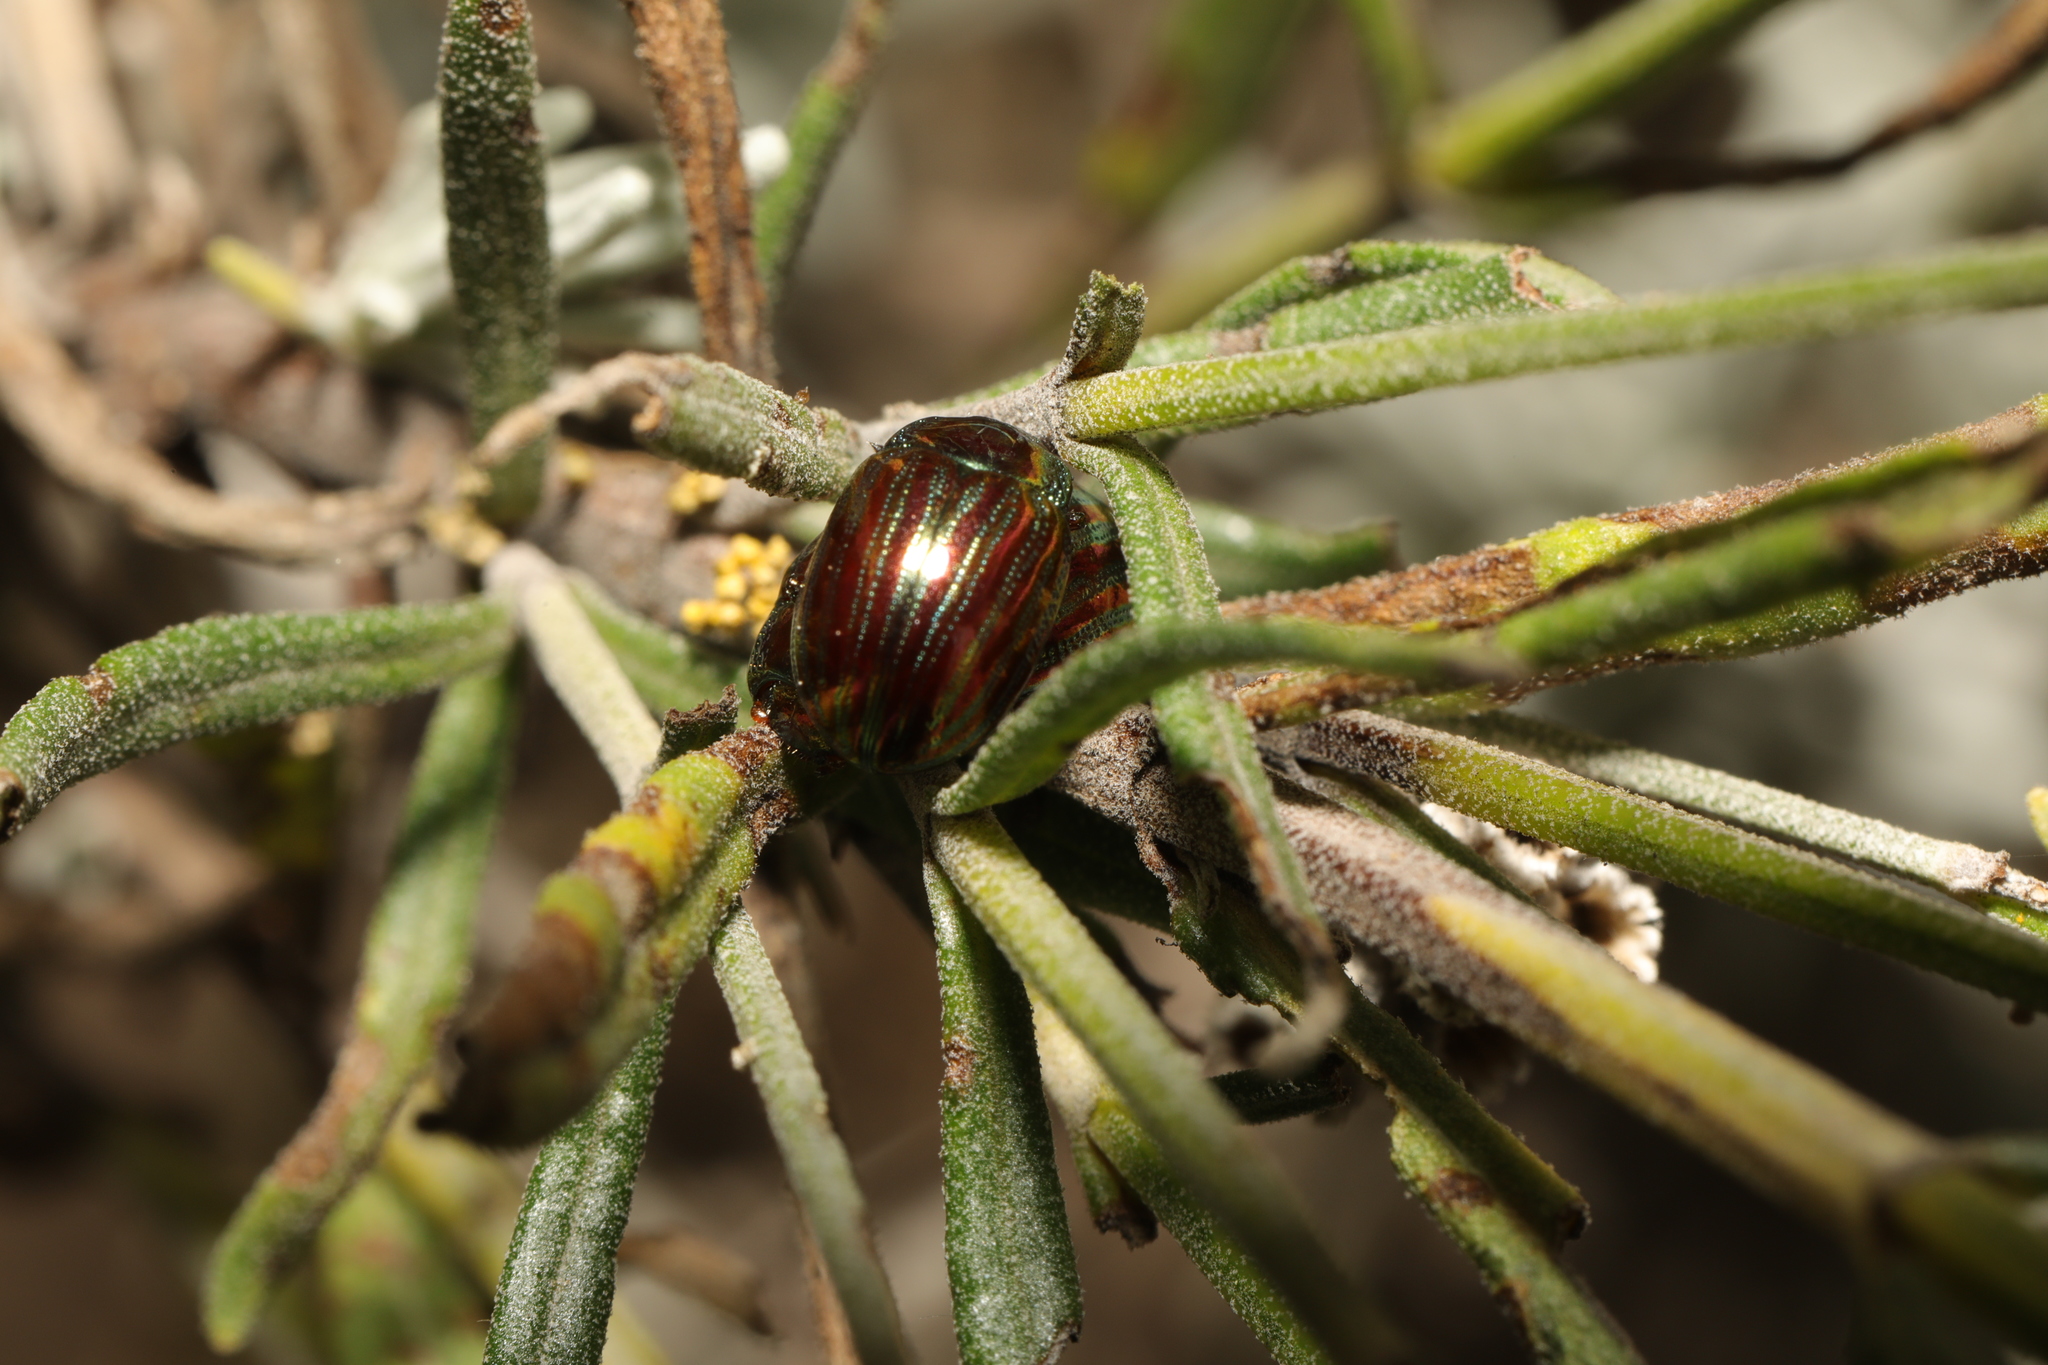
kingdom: Animalia
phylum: Arthropoda
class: Insecta
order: Coleoptera
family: Chrysomelidae
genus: Chrysolina
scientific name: Chrysolina americana
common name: Rosemary beetle
